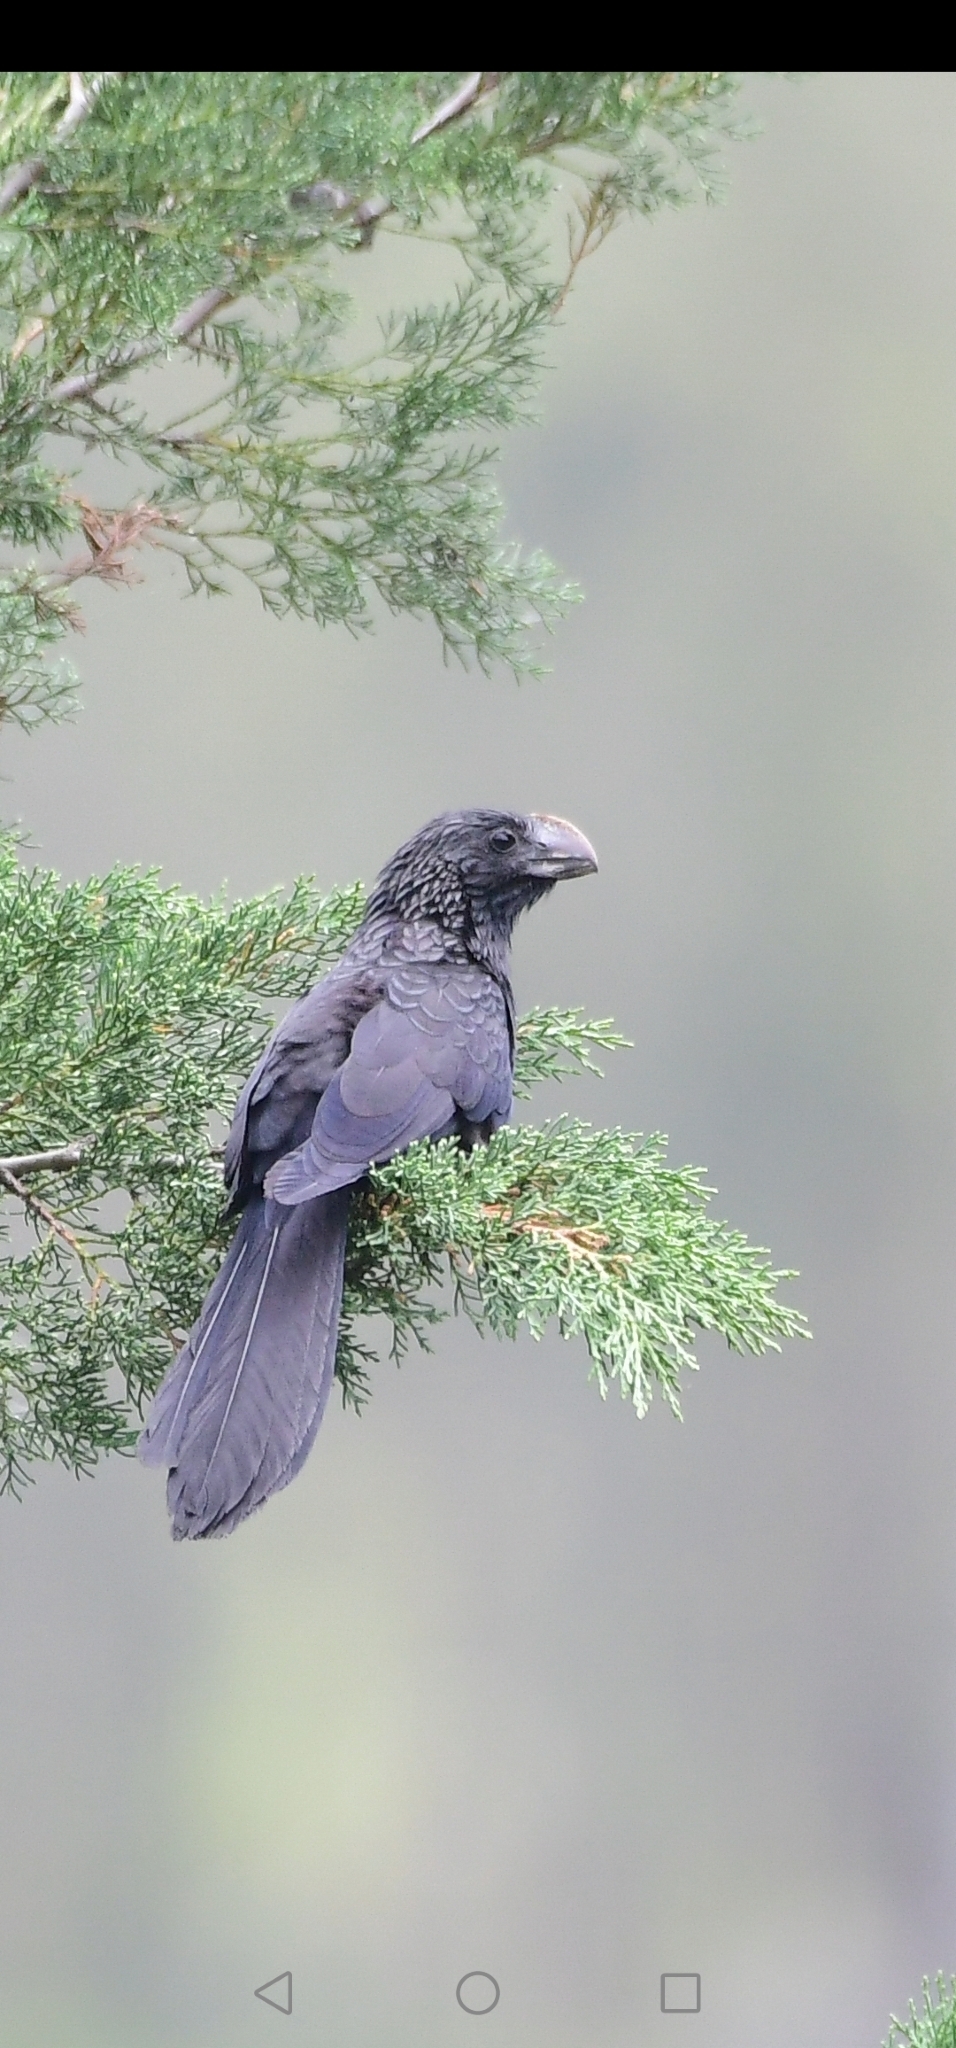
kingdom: Animalia
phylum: Chordata
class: Aves
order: Cuculiformes
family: Cuculidae
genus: Crotophaga
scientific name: Crotophaga ani
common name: Smooth-billed ani
